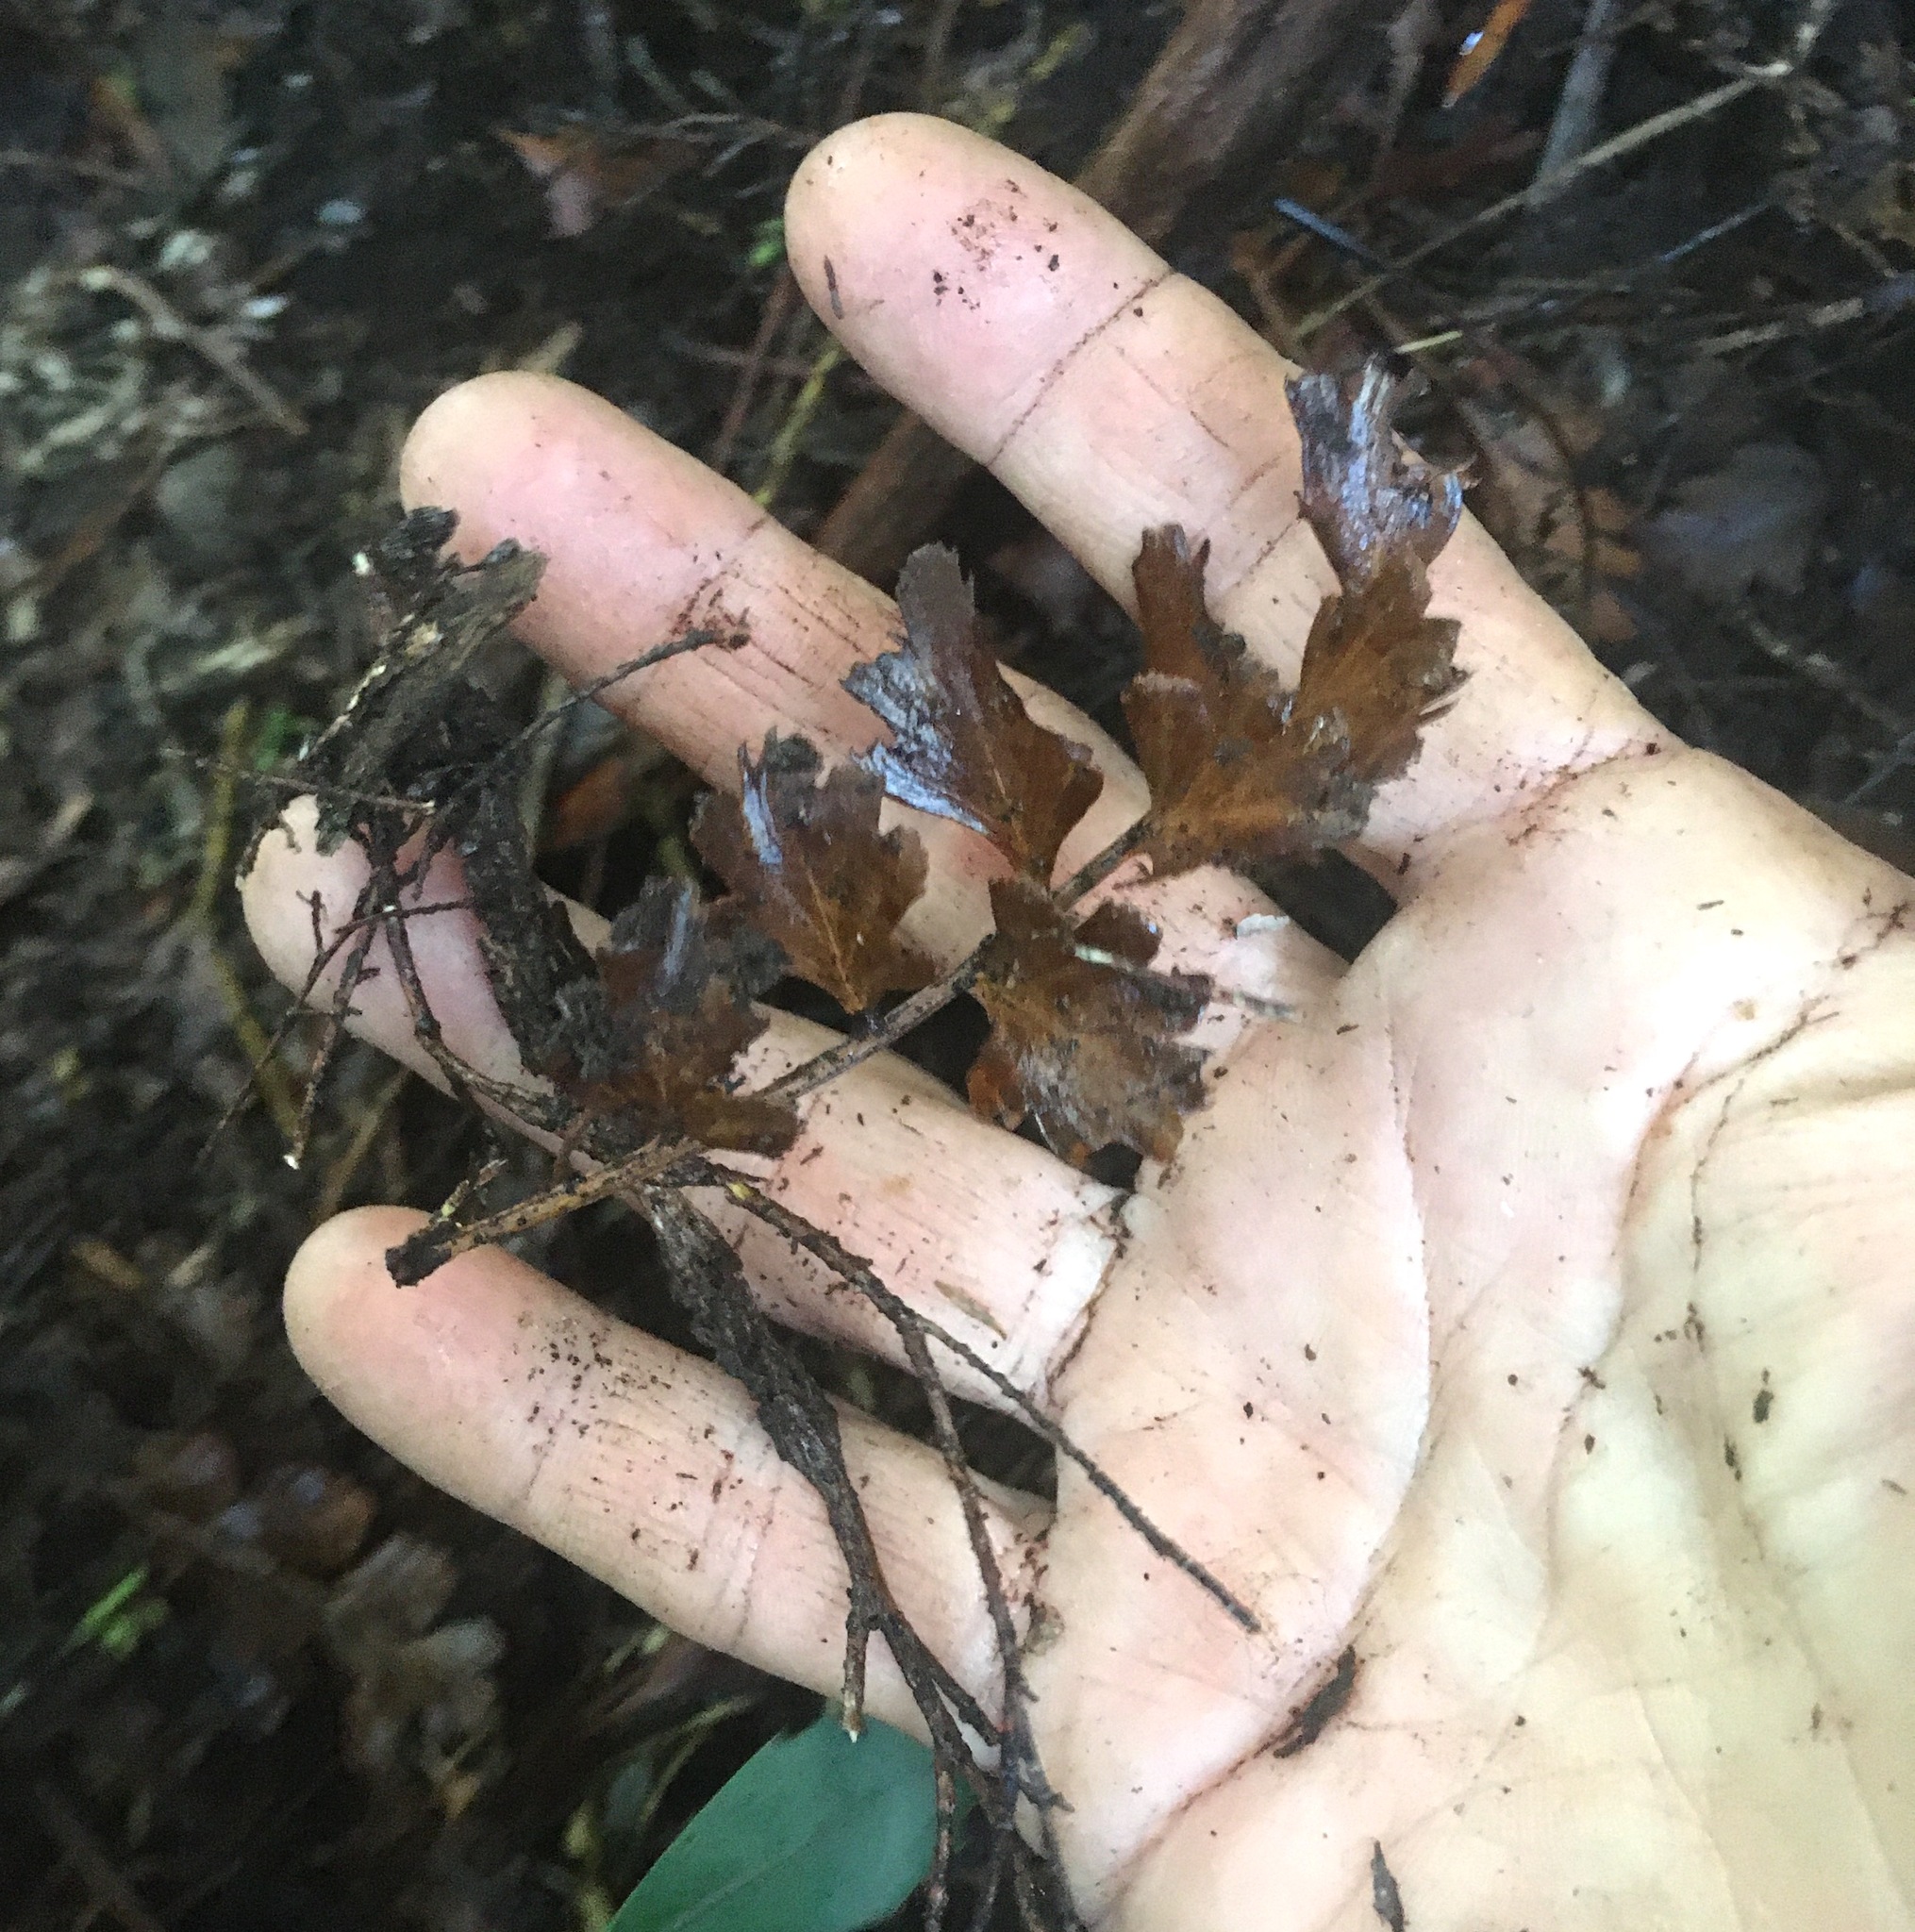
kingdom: Plantae
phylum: Tracheophyta
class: Pinopsida
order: Pinales
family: Phyllocladaceae
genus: Phyllocladus
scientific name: Phyllocladus trichomanoides
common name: Celery pine
